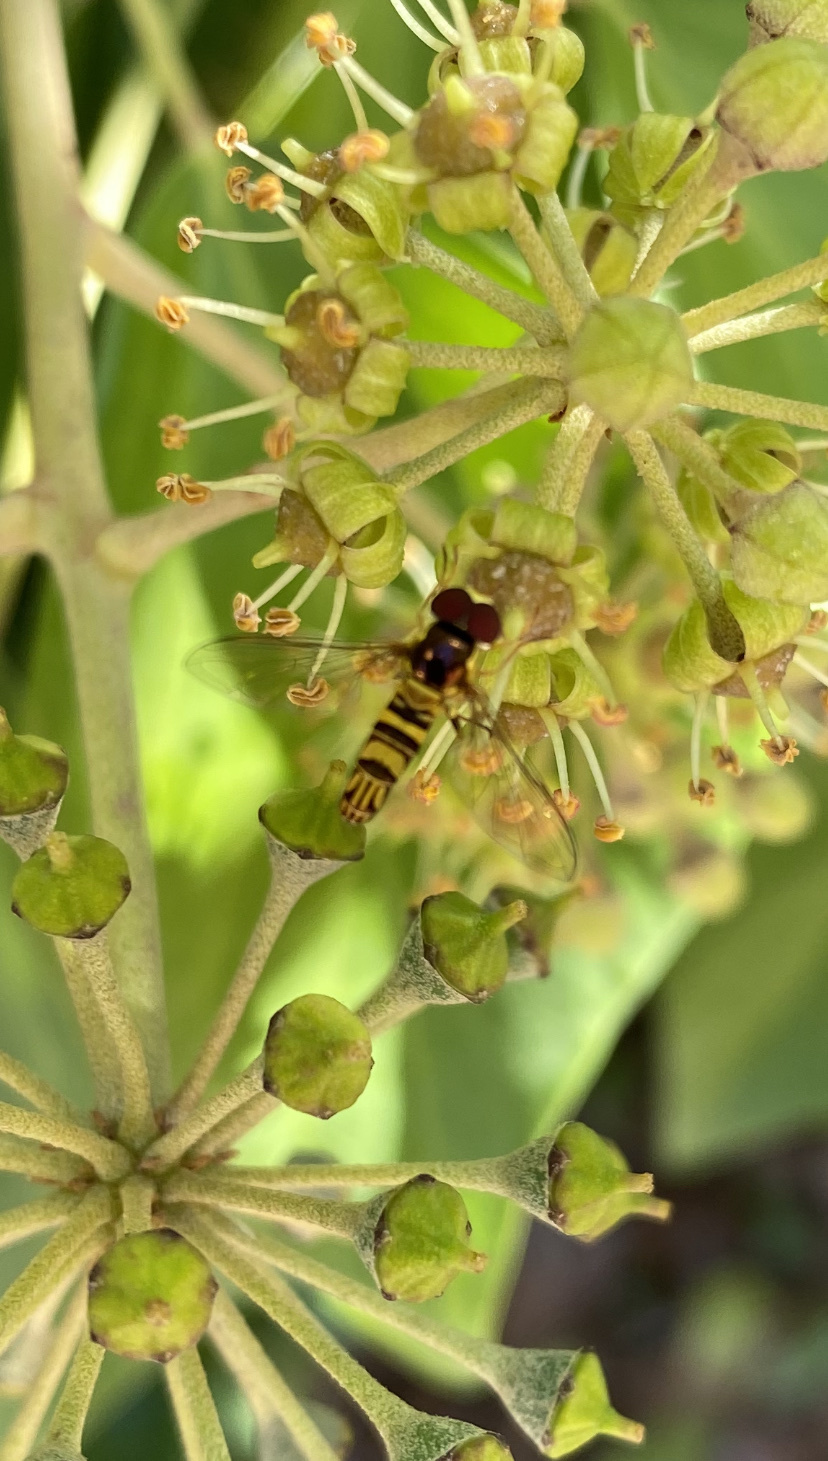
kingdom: Animalia
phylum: Arthropoda
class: Insecta
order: Diptera
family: Syrphidae
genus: Allograpta
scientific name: Allograpta obliqua
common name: Common oblique syrphid
